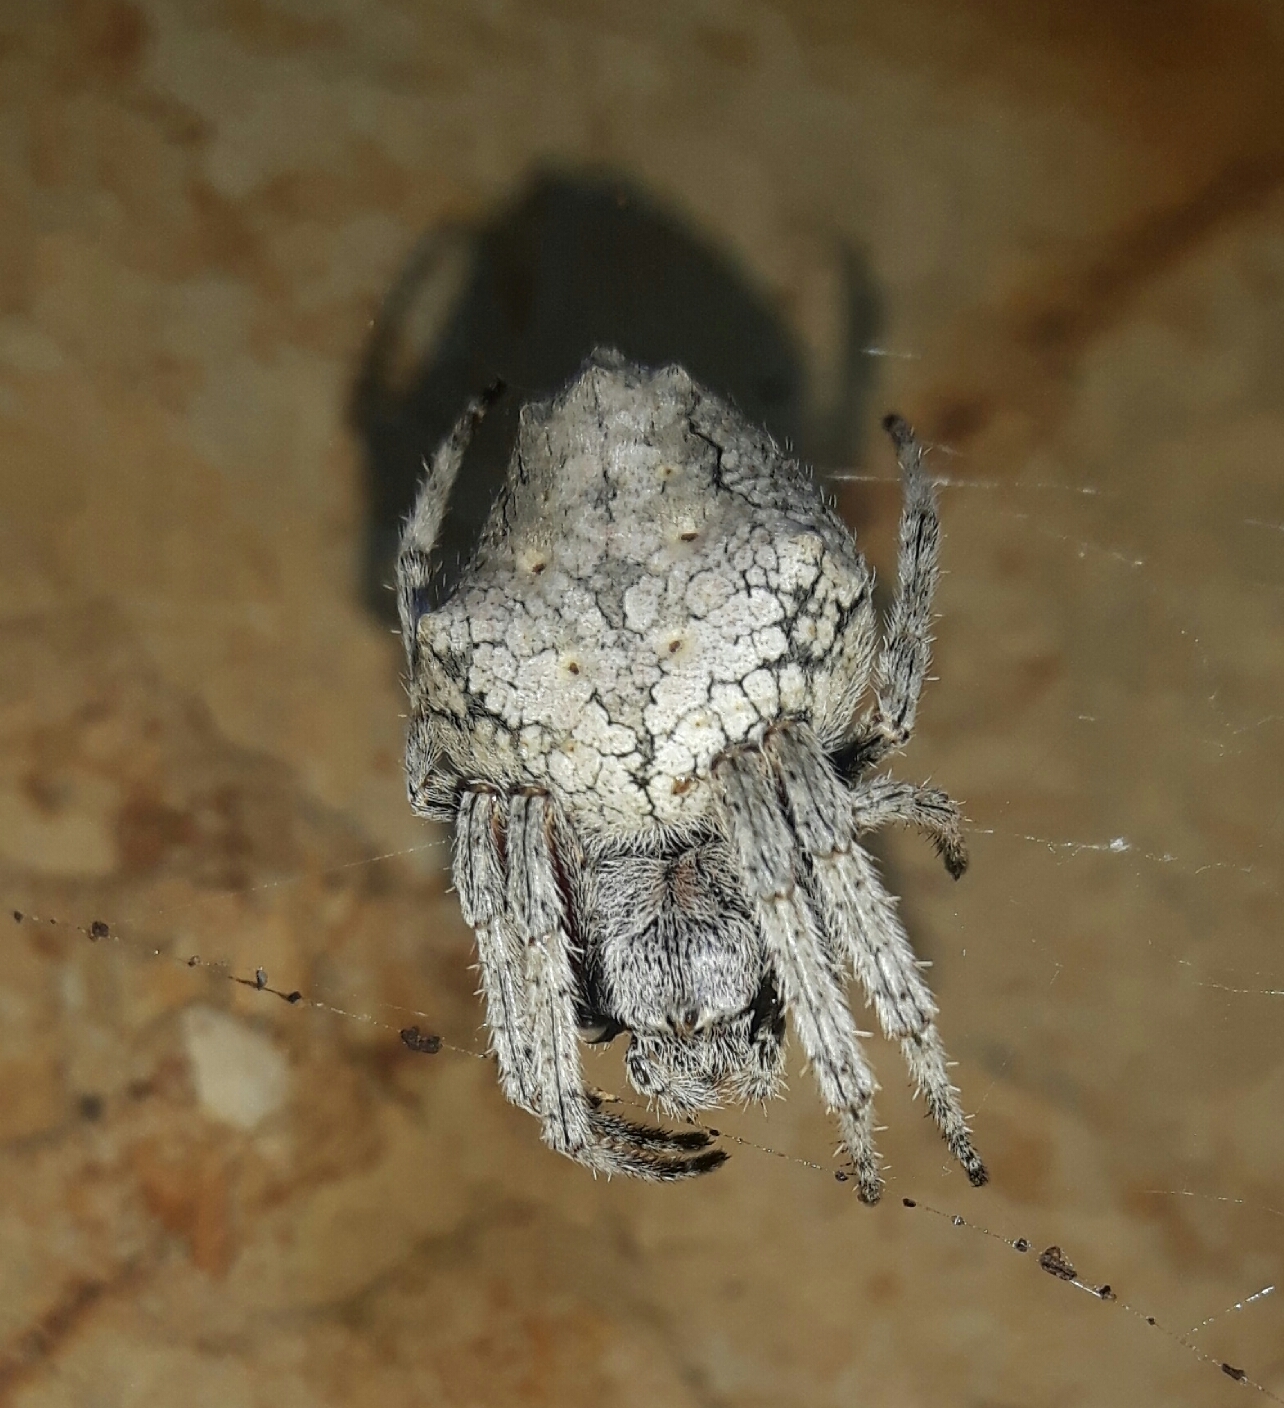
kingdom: Animalia
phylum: Arthropoda
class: Arachnida
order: Araneae
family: Araneidae
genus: Eriophora
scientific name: Eriophora pustulosa
